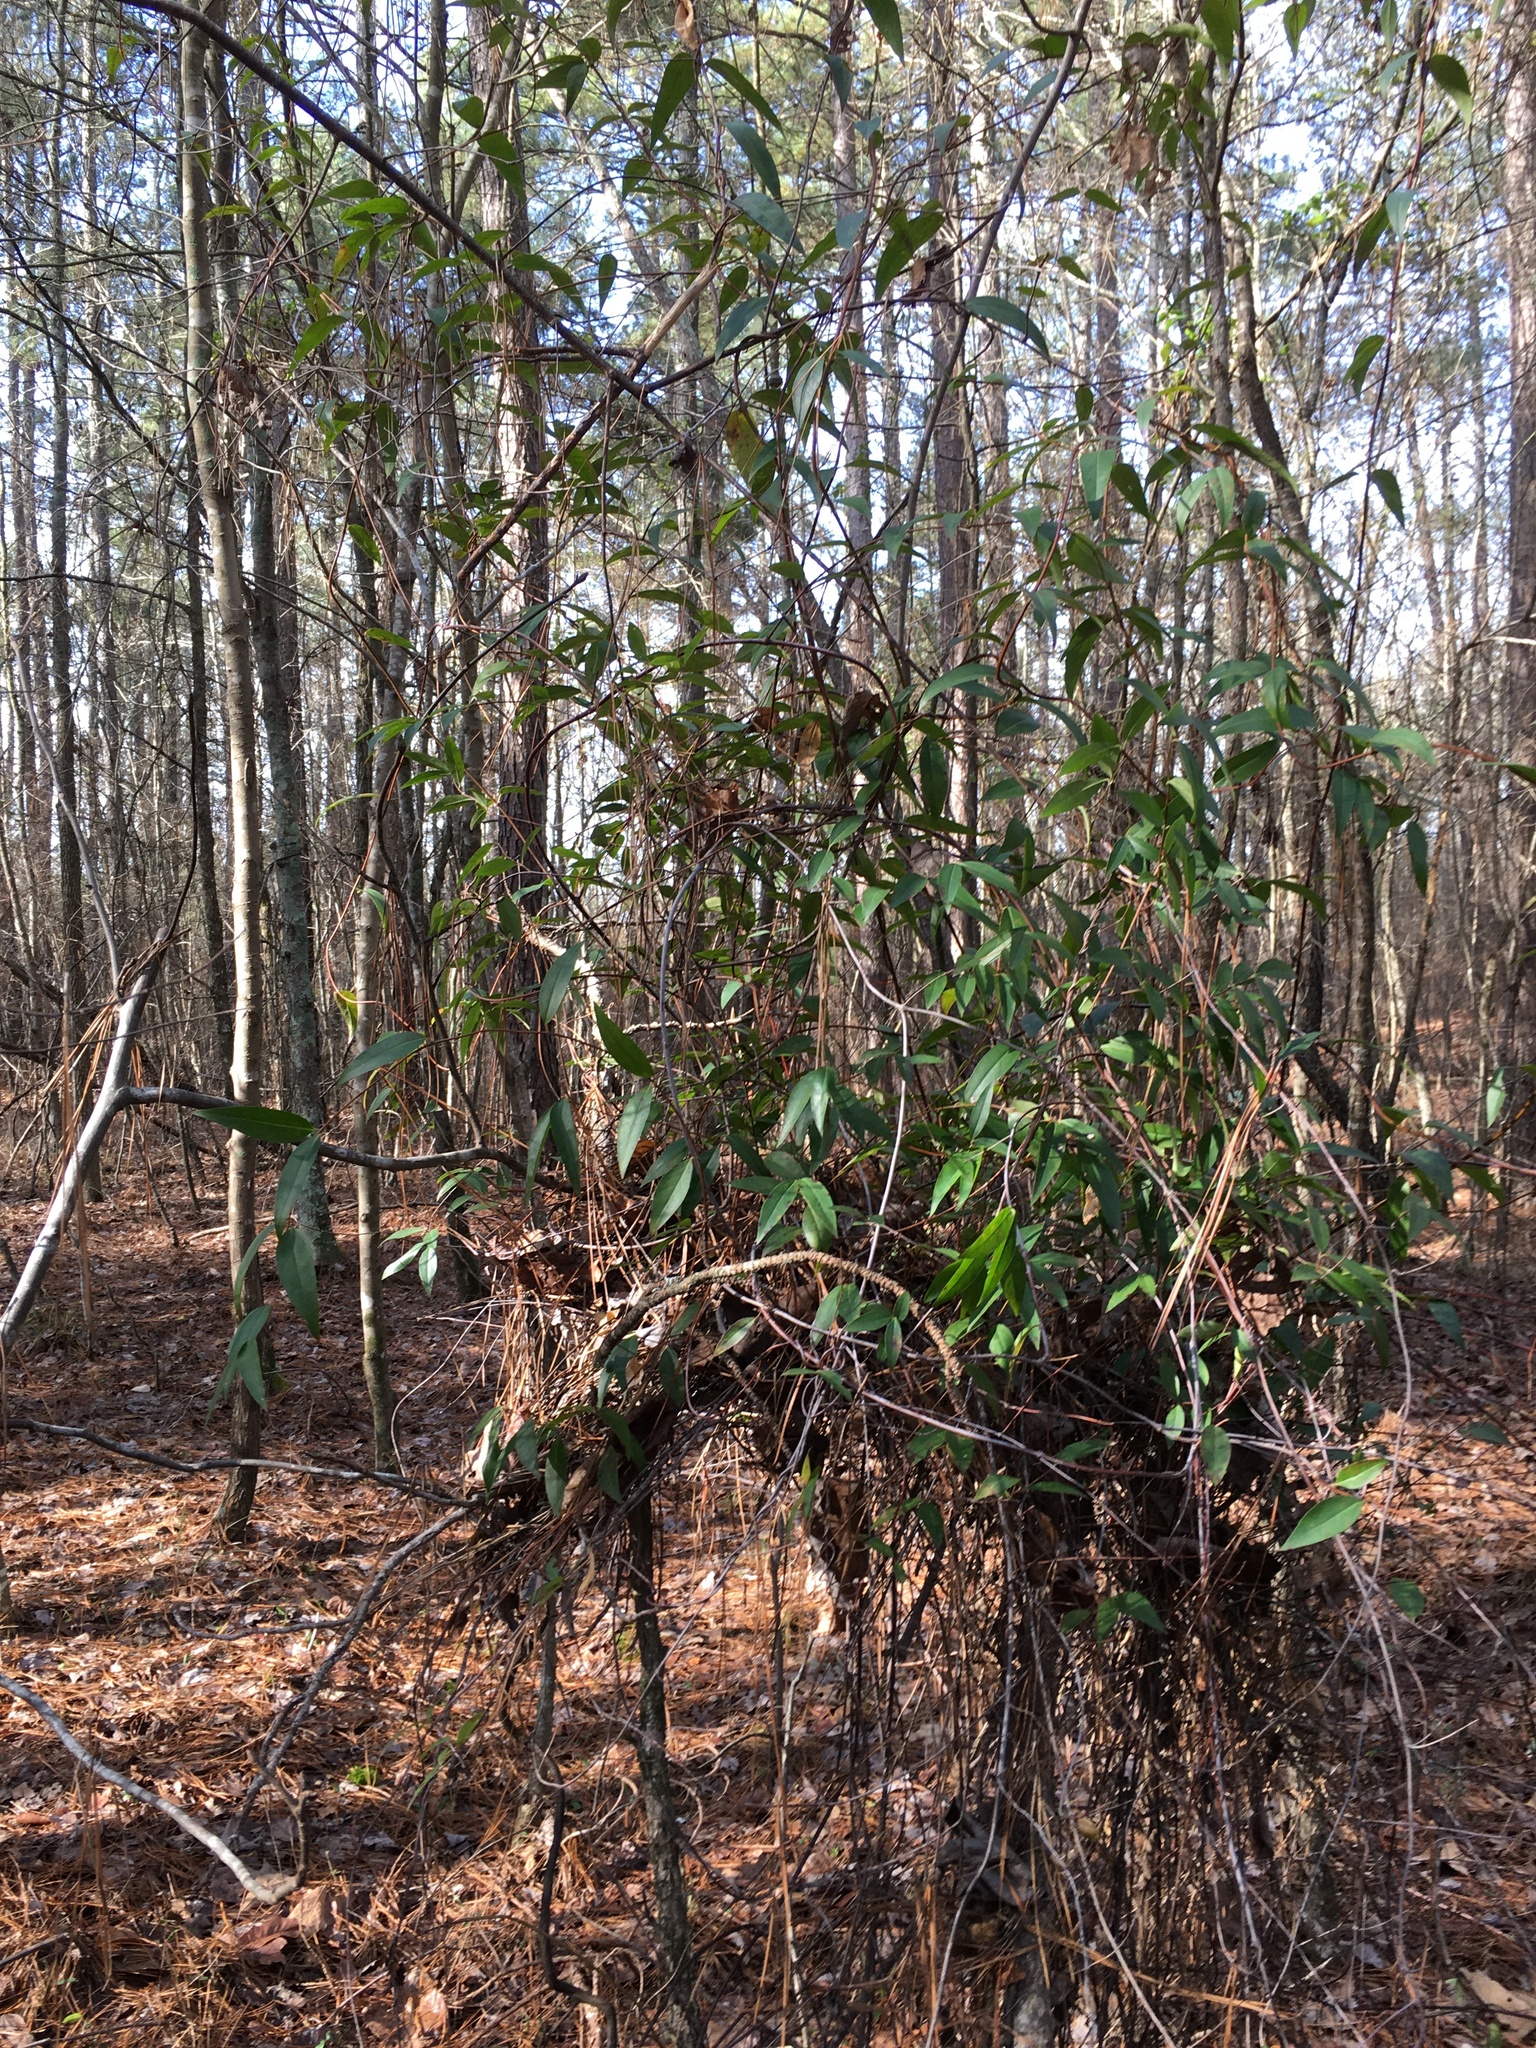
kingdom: Plantae
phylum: Tracheophyta
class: Magnoliopsida
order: Gentianales
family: Gelsemiaceae
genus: Gelsemium
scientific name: Gelsemium sempervirens
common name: Carolina-jasmine
